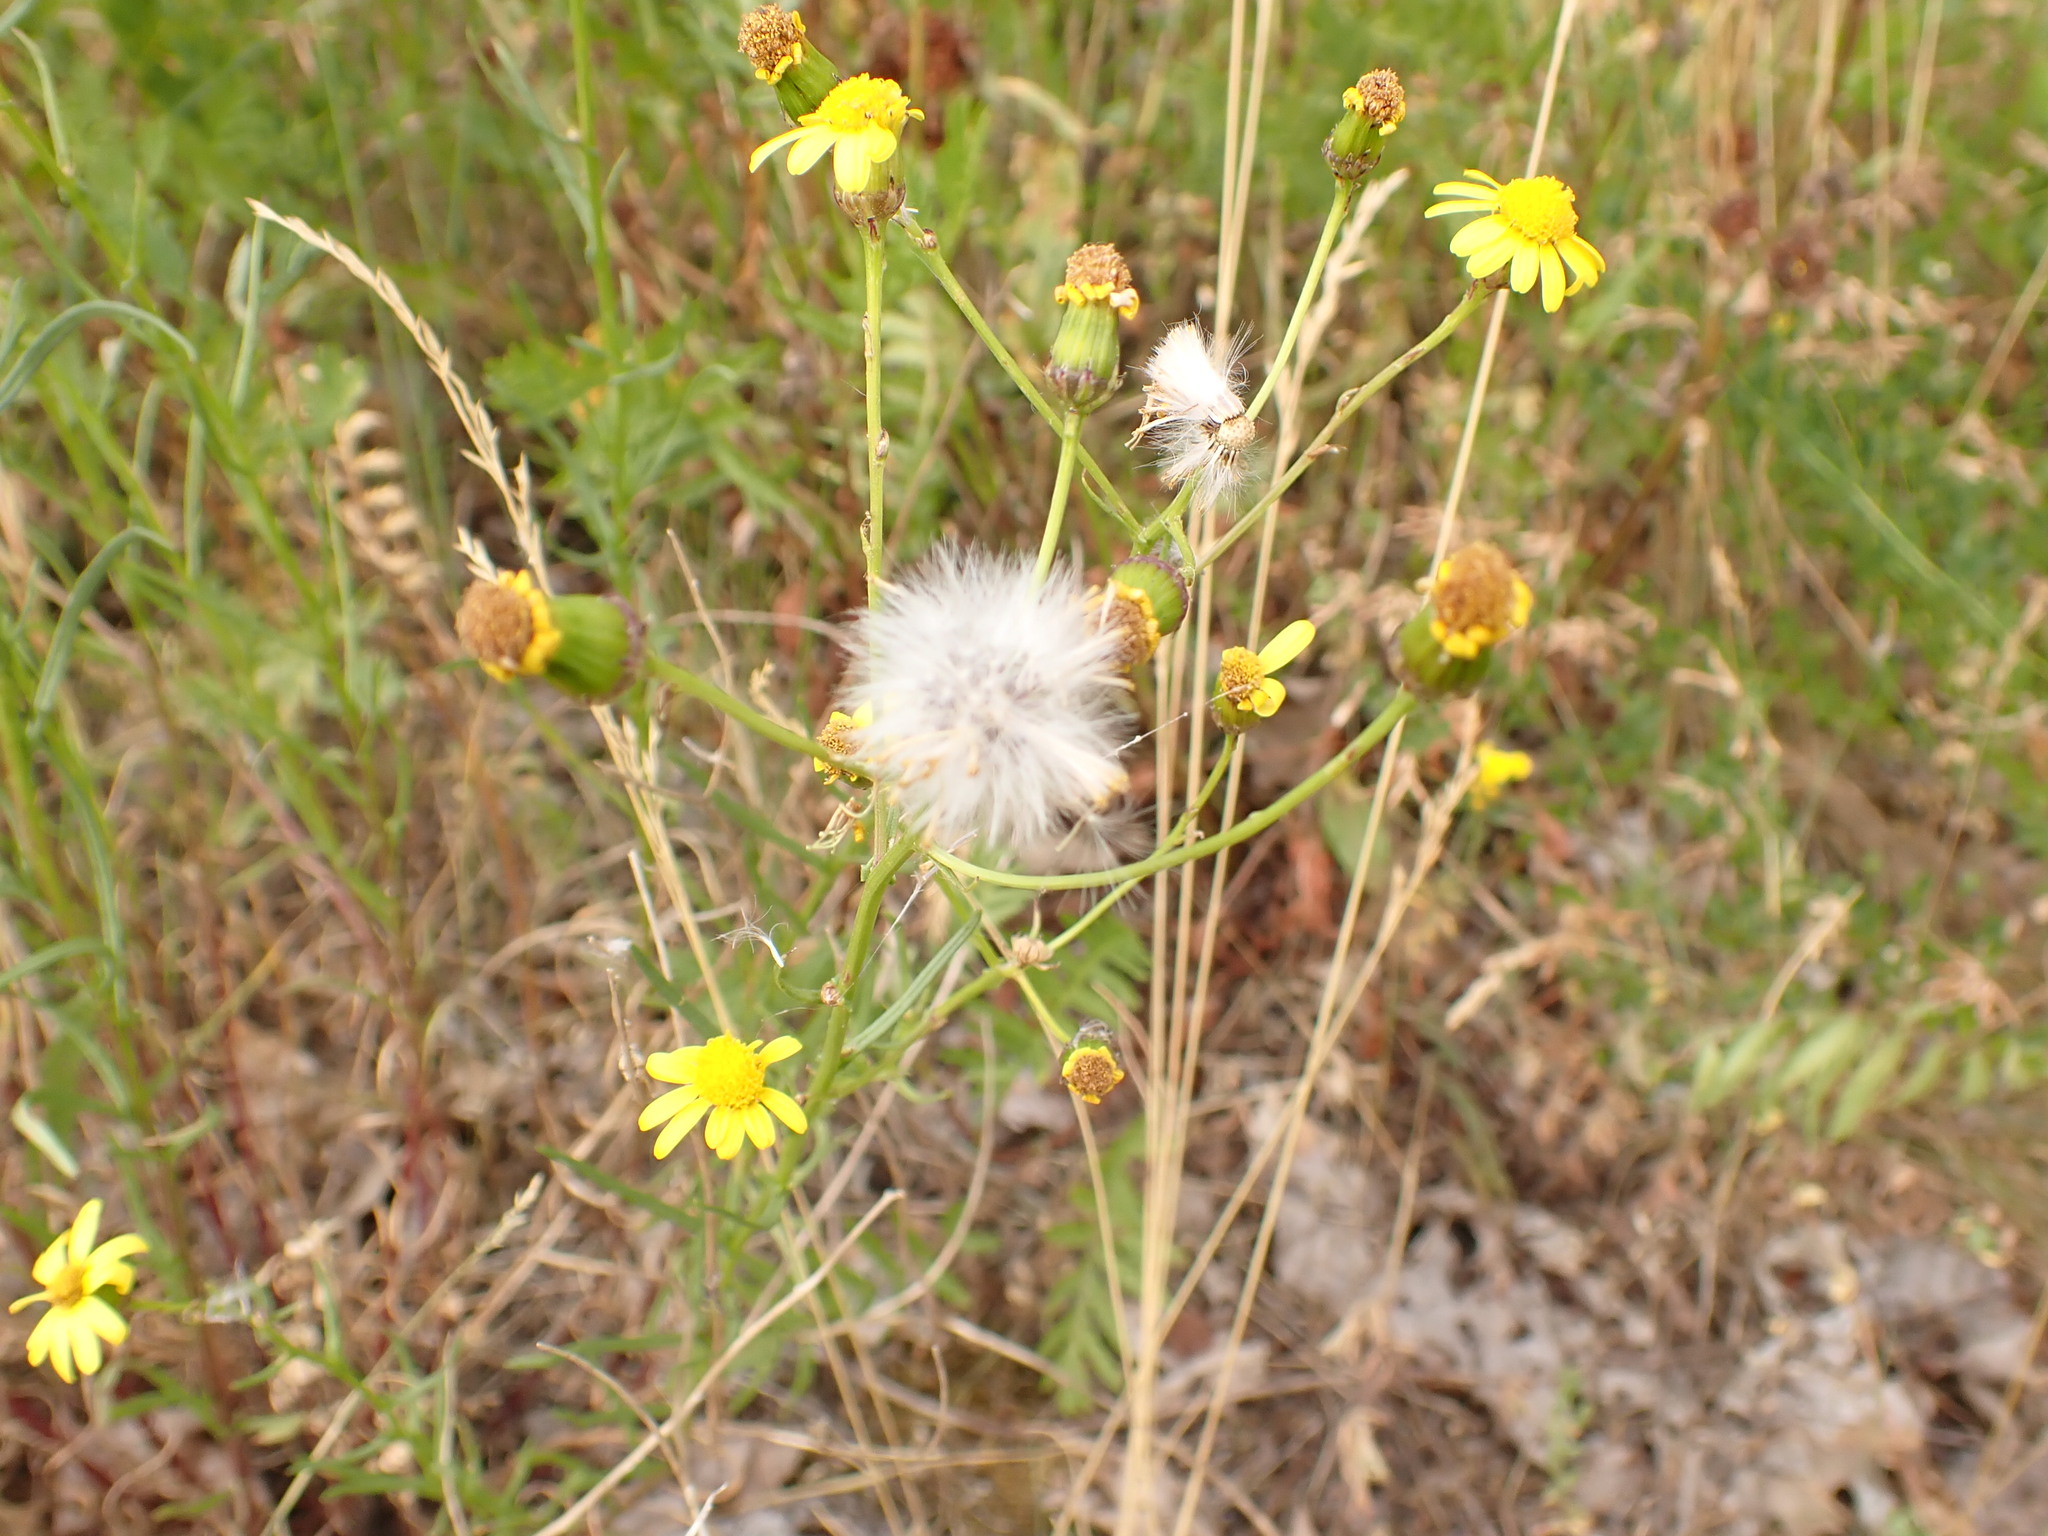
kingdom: Plantae
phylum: Tracheophyta
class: Magnoliopsida
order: Asterales
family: Asteraceae
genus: Senecio
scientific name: Senecio inaequidens
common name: Narrow-leaved ragwort
